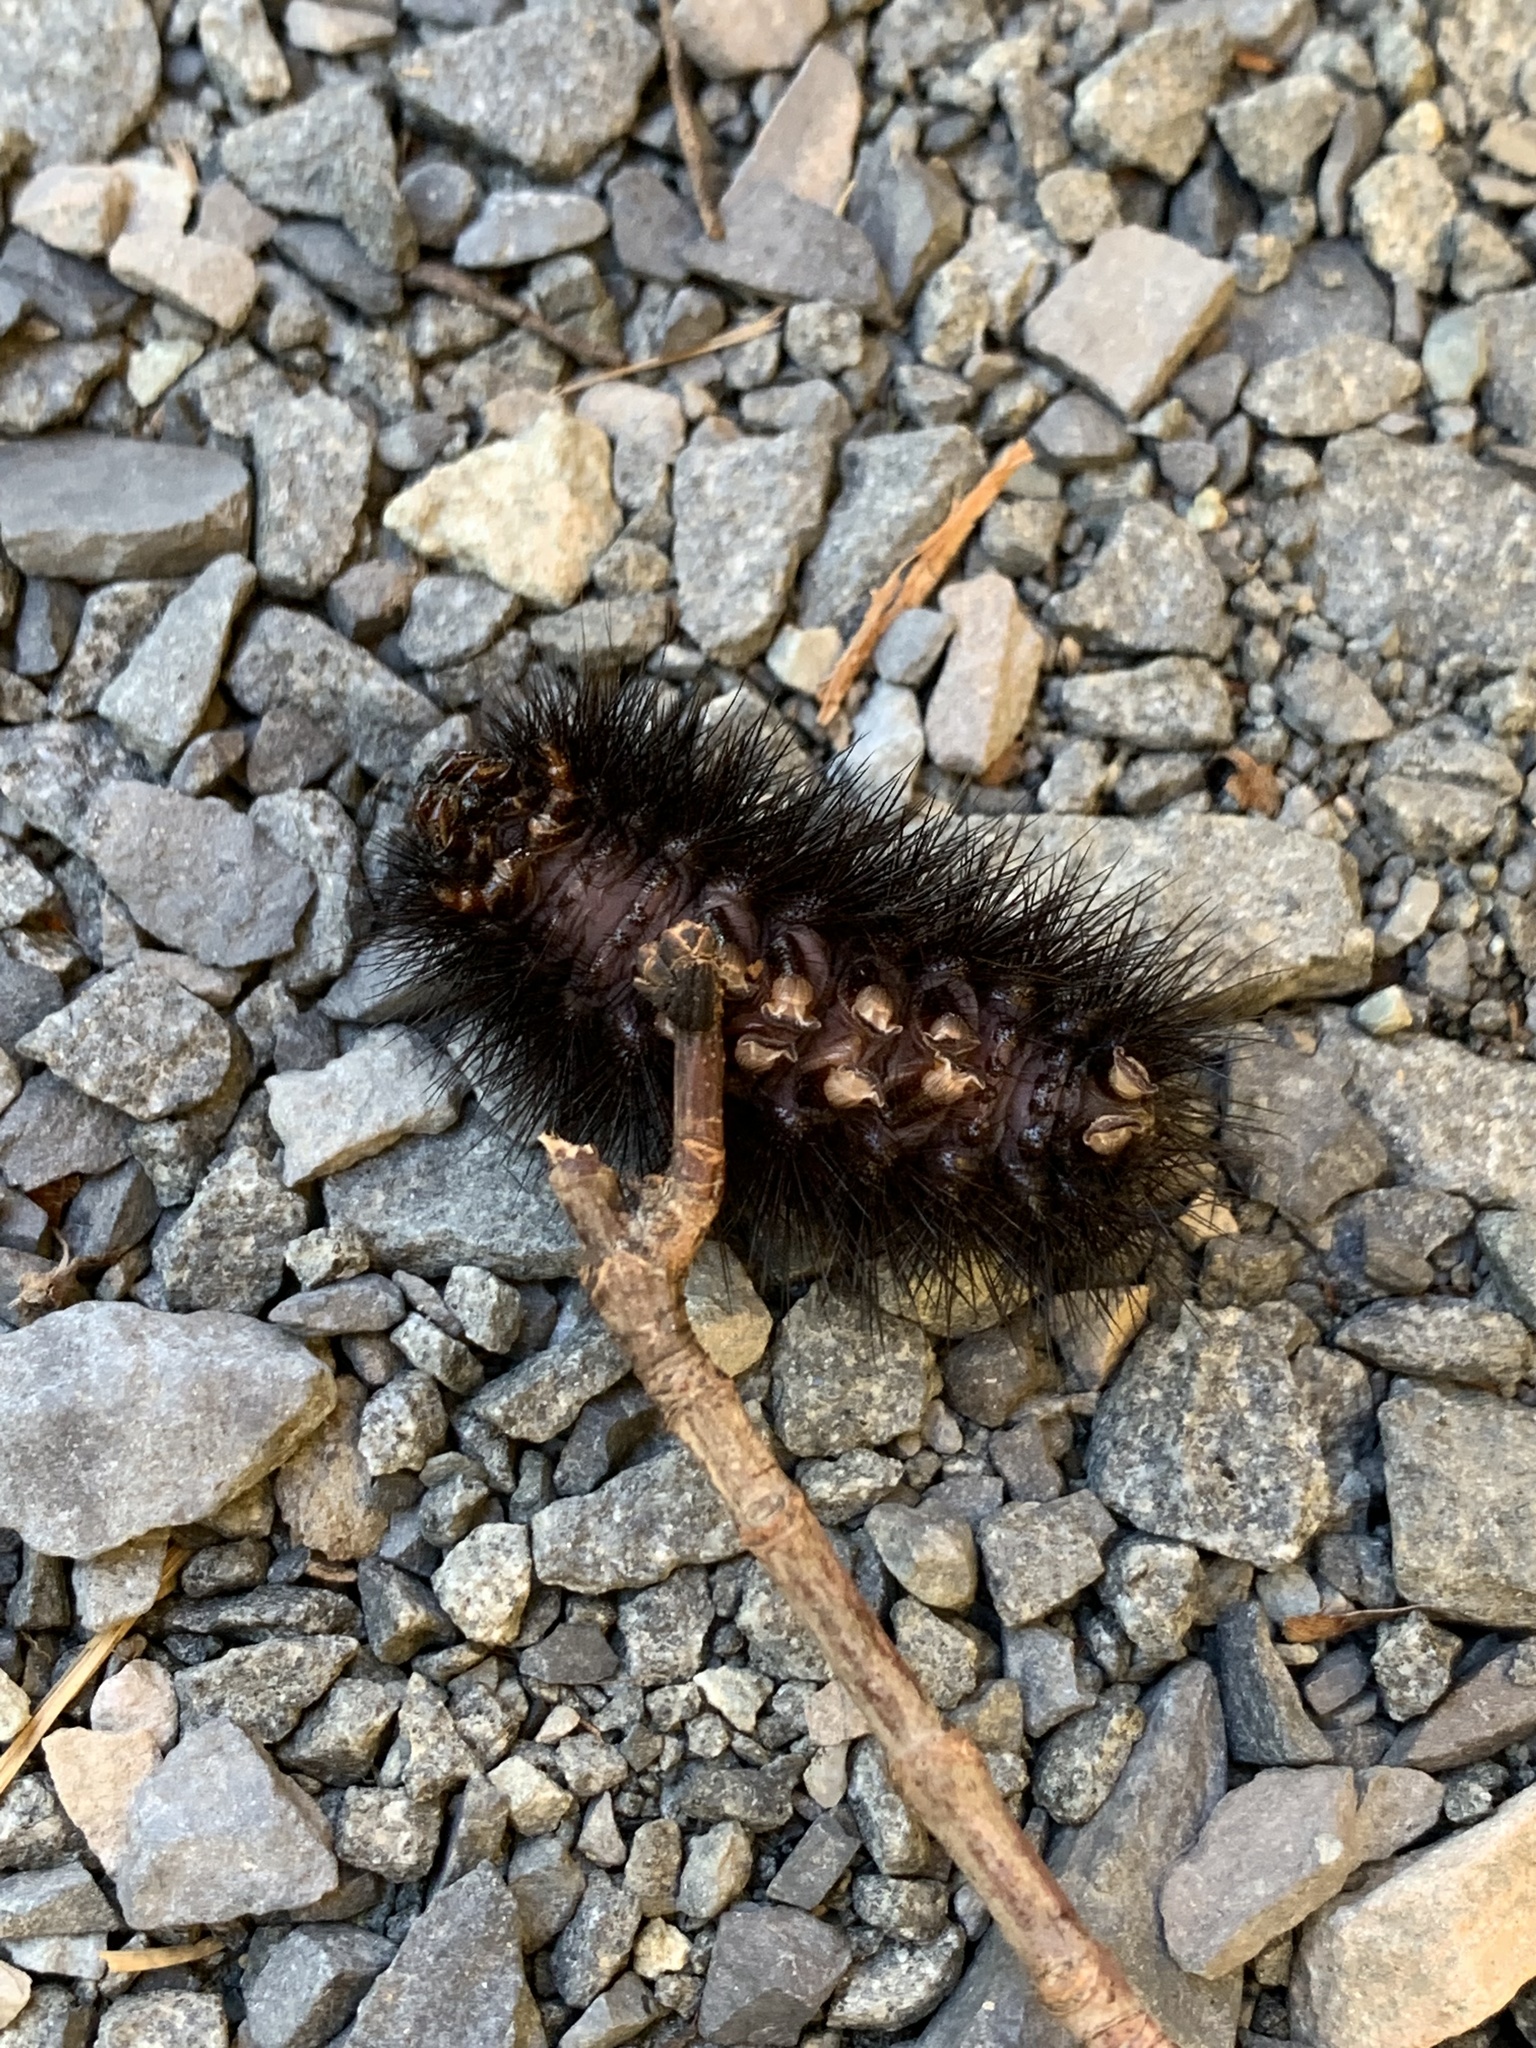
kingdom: Animalia
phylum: Arthropoda
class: Insecta
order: Lepidoptera
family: Erebidae
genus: Hypercompe
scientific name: Hypercompe scribonia
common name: Giant leopard moth
